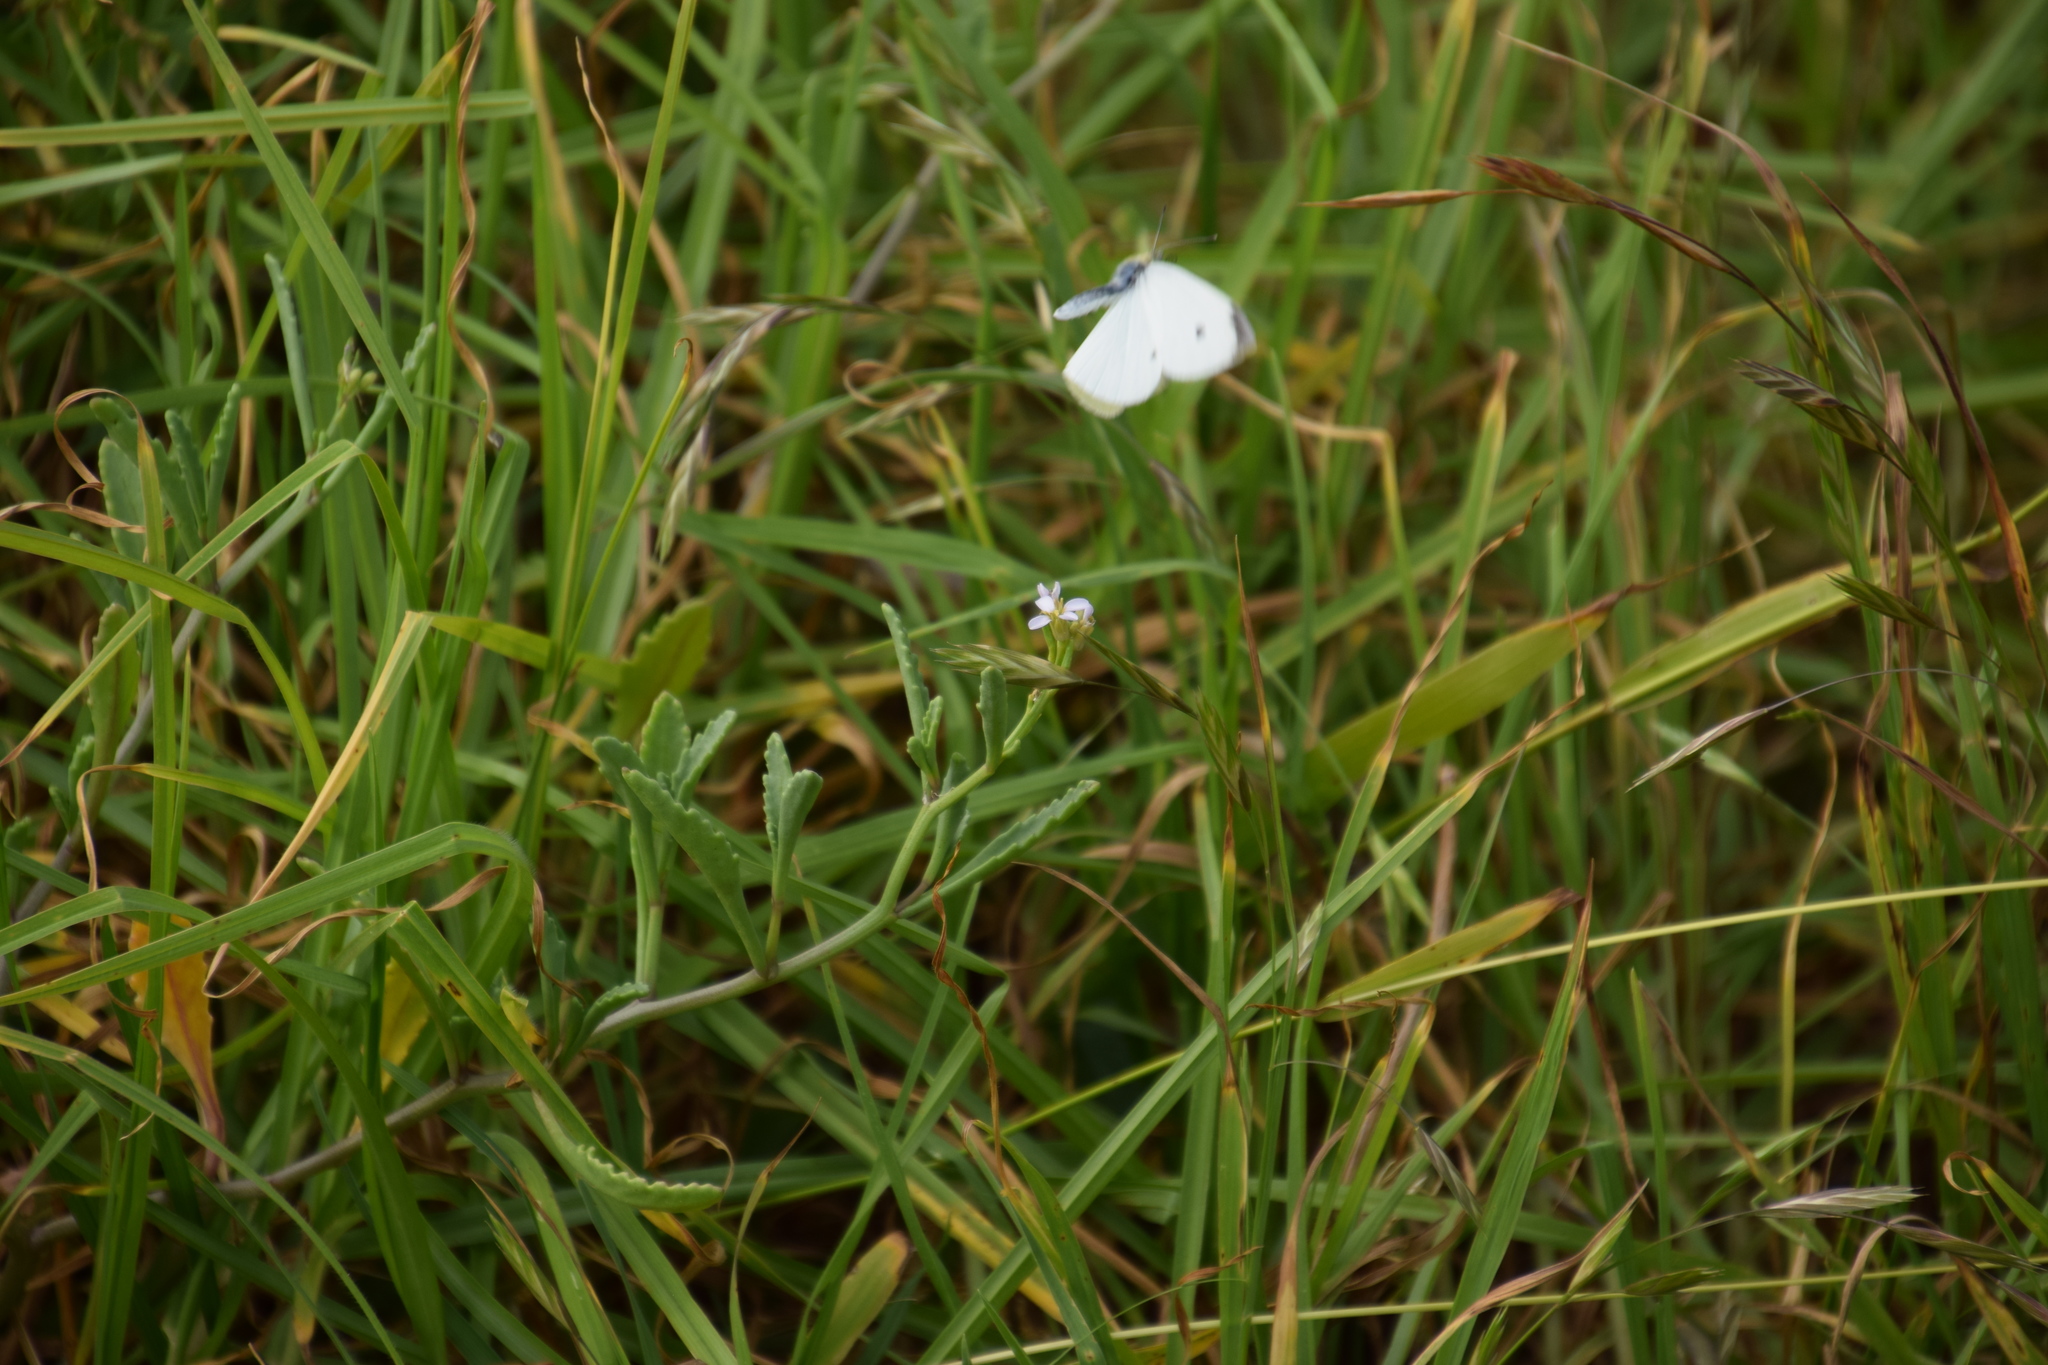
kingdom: Animalia
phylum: Arthropoda
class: Insecta
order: Lepidoptera
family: Pieridae
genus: Pieris
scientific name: Pieris rapae
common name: Small white
